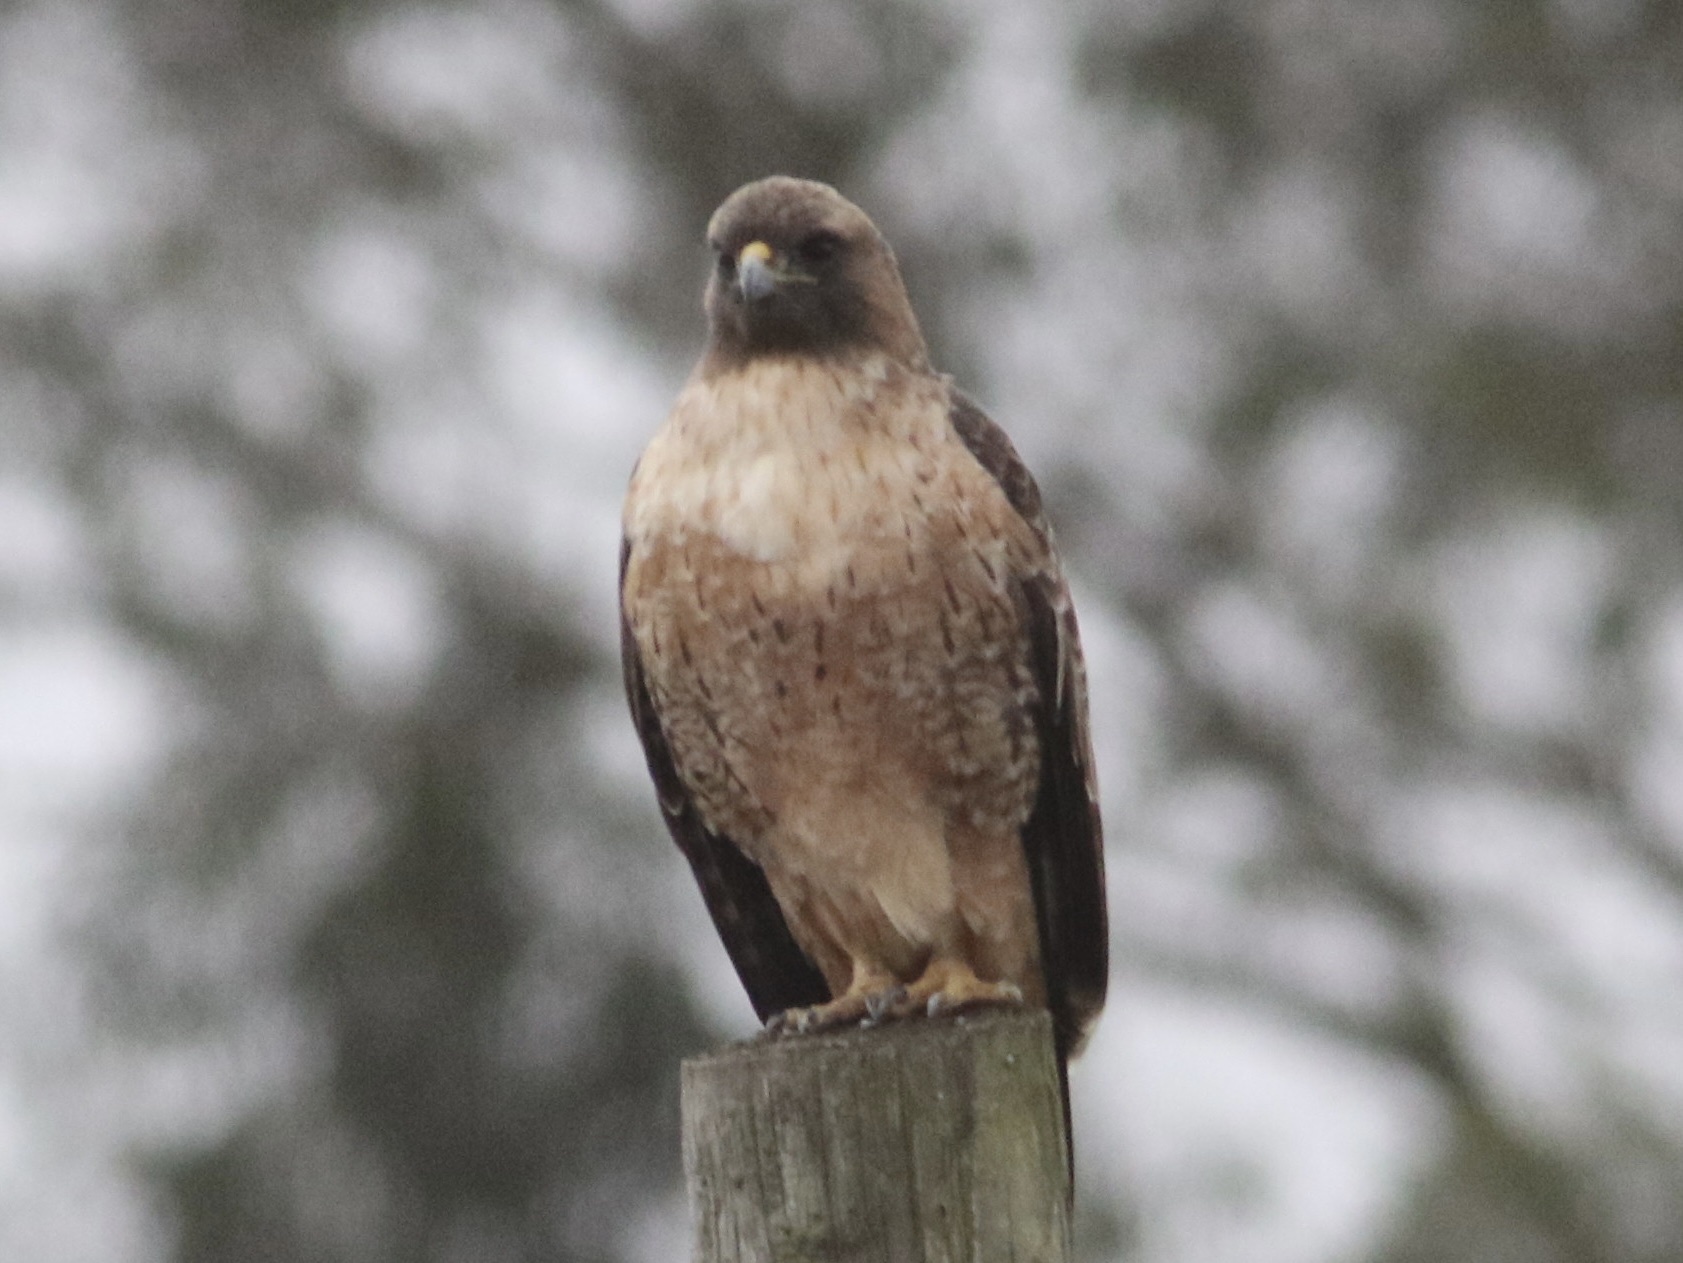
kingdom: Animalia
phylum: Chordata
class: Aves
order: Accipitriformes
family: Accipitridae
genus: Buteo
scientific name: Buteo jamaicensis
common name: Red-tailed hawk
